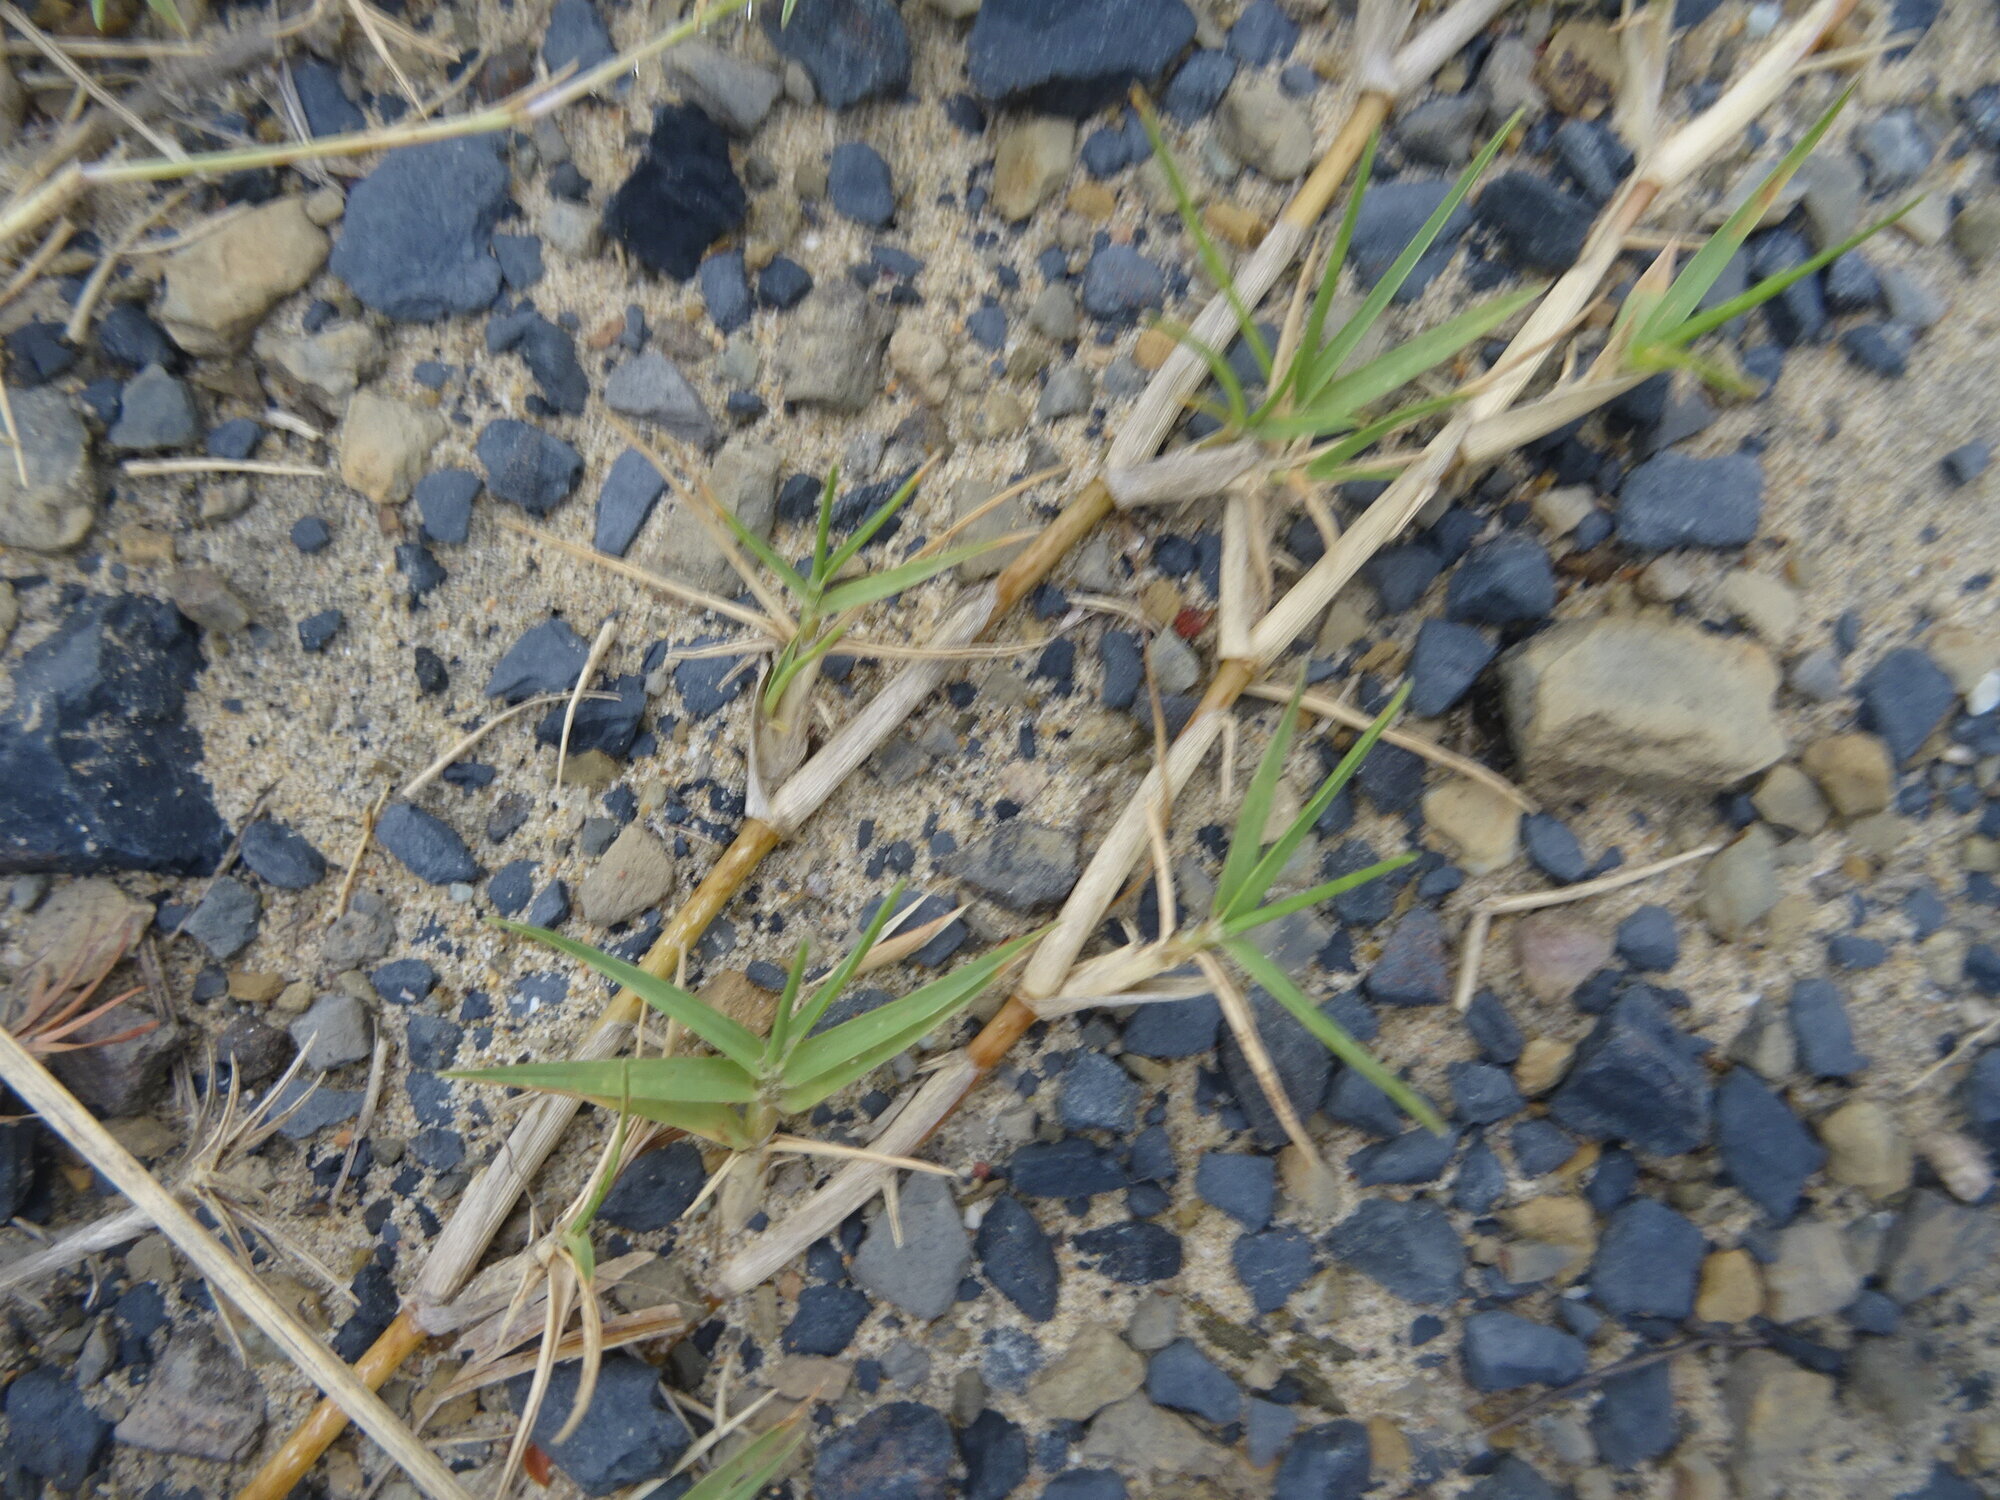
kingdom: Plantae
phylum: Tracheophyta
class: Liliopsida
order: Poales
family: Poaceae
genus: Cynodon
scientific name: Cynodon dactylon
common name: Bermuda grass
